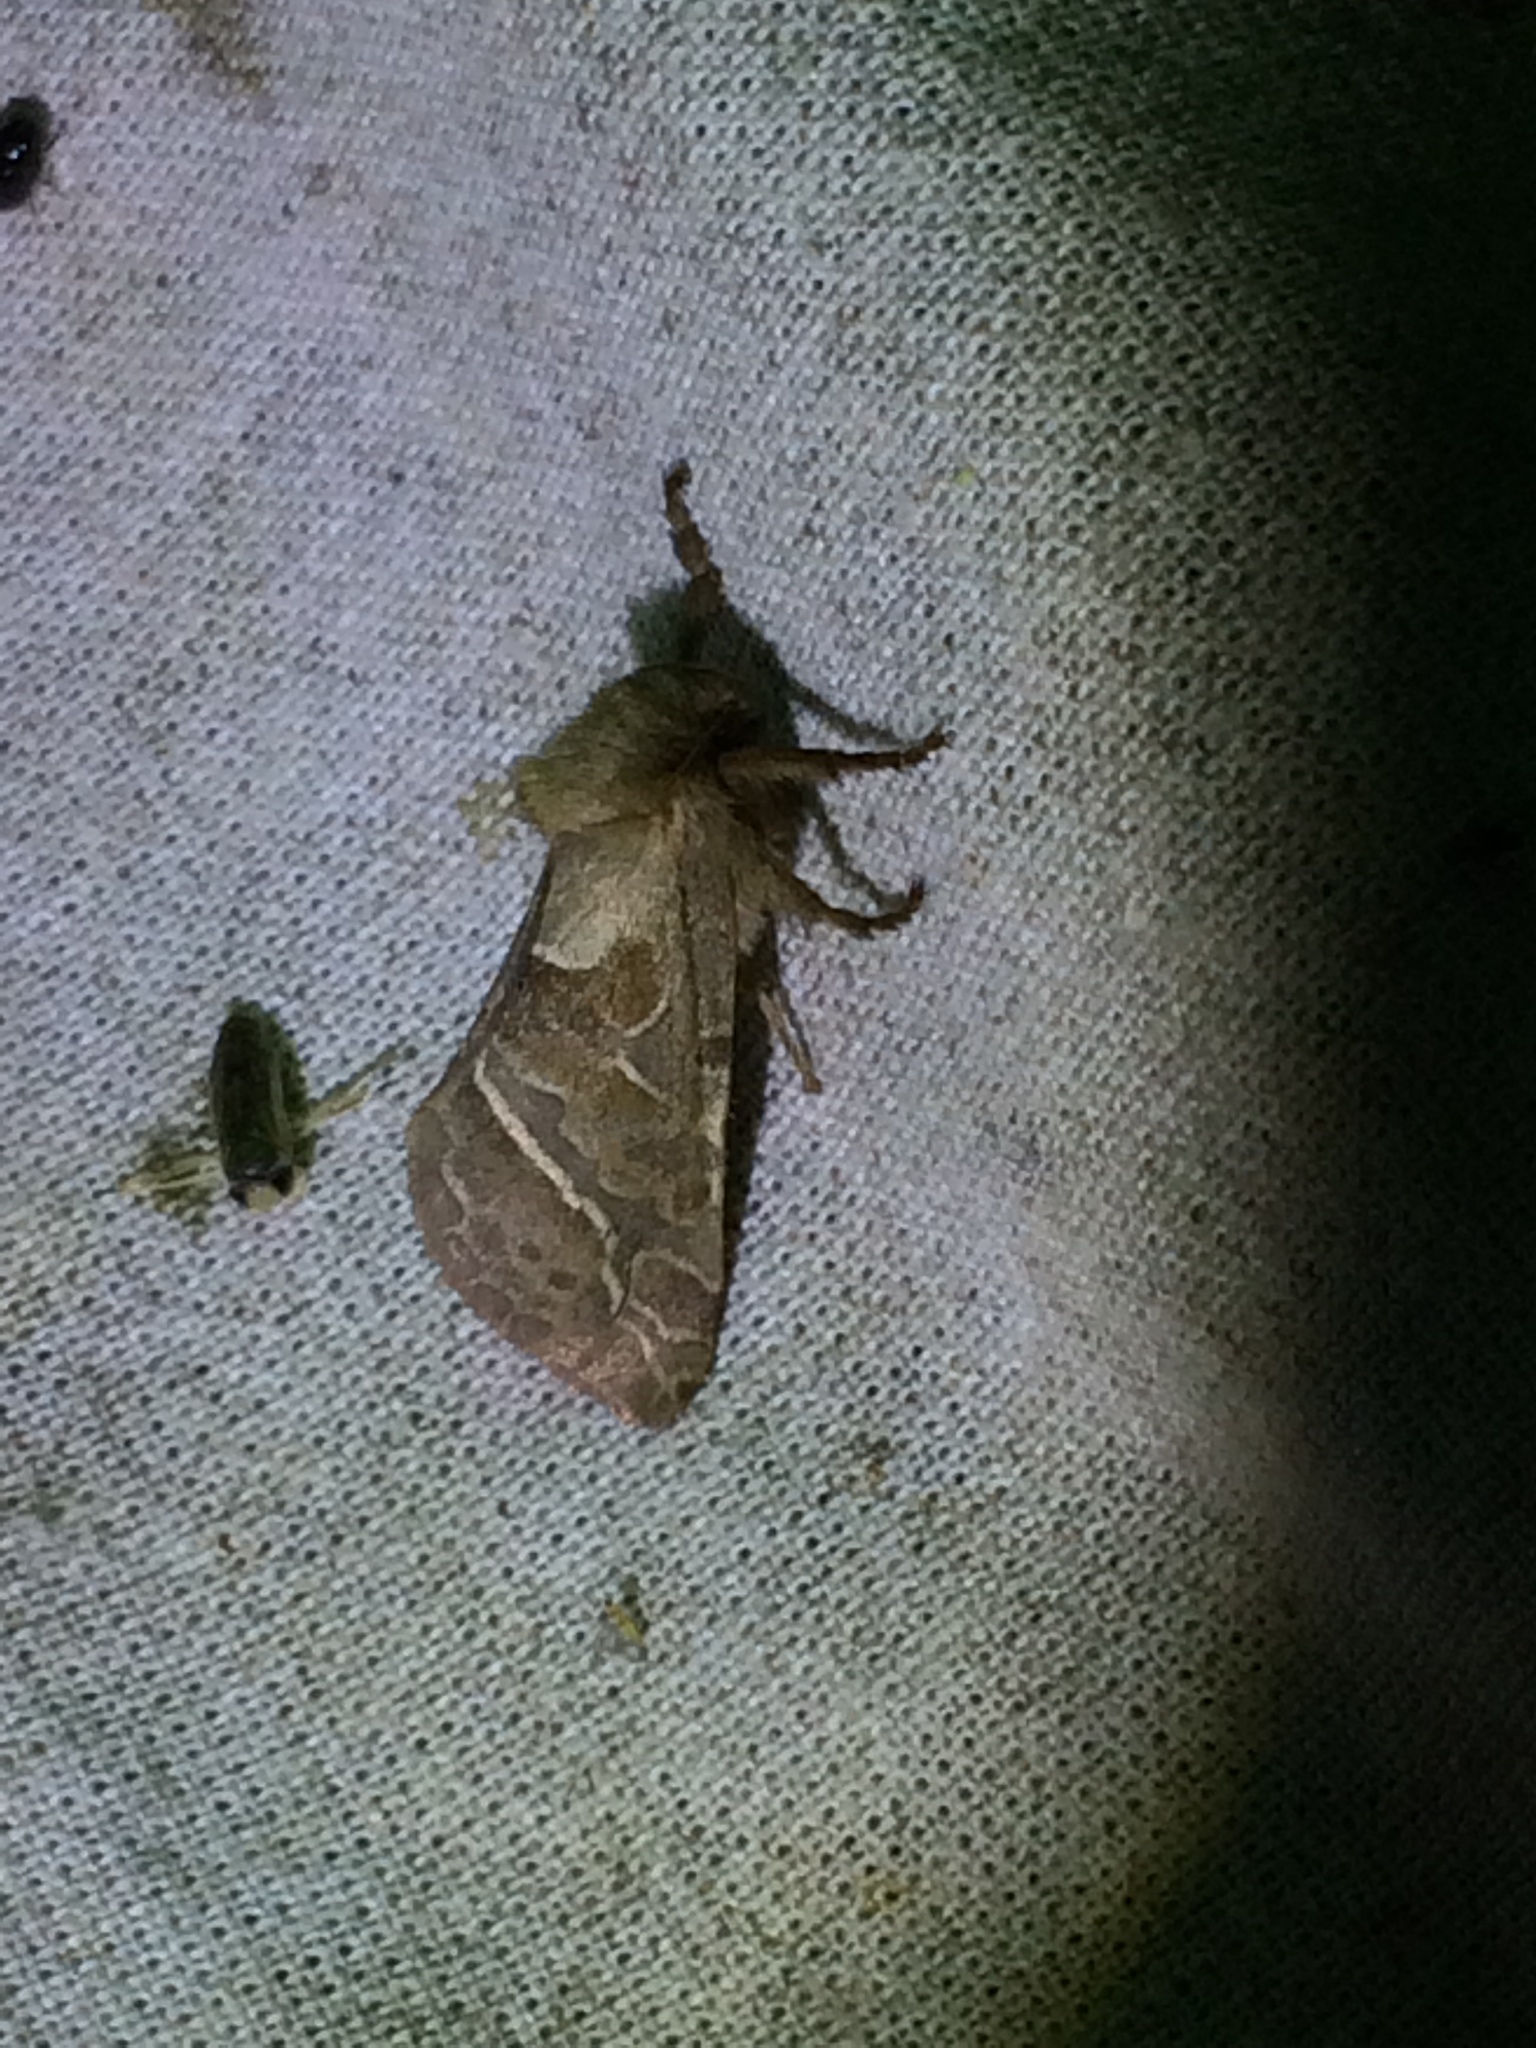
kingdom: Animalia
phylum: Arthropoda
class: Insecta
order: Lepidoptera
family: Hepialidae
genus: Triodia
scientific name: Triodia sylvina
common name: Orange swift
